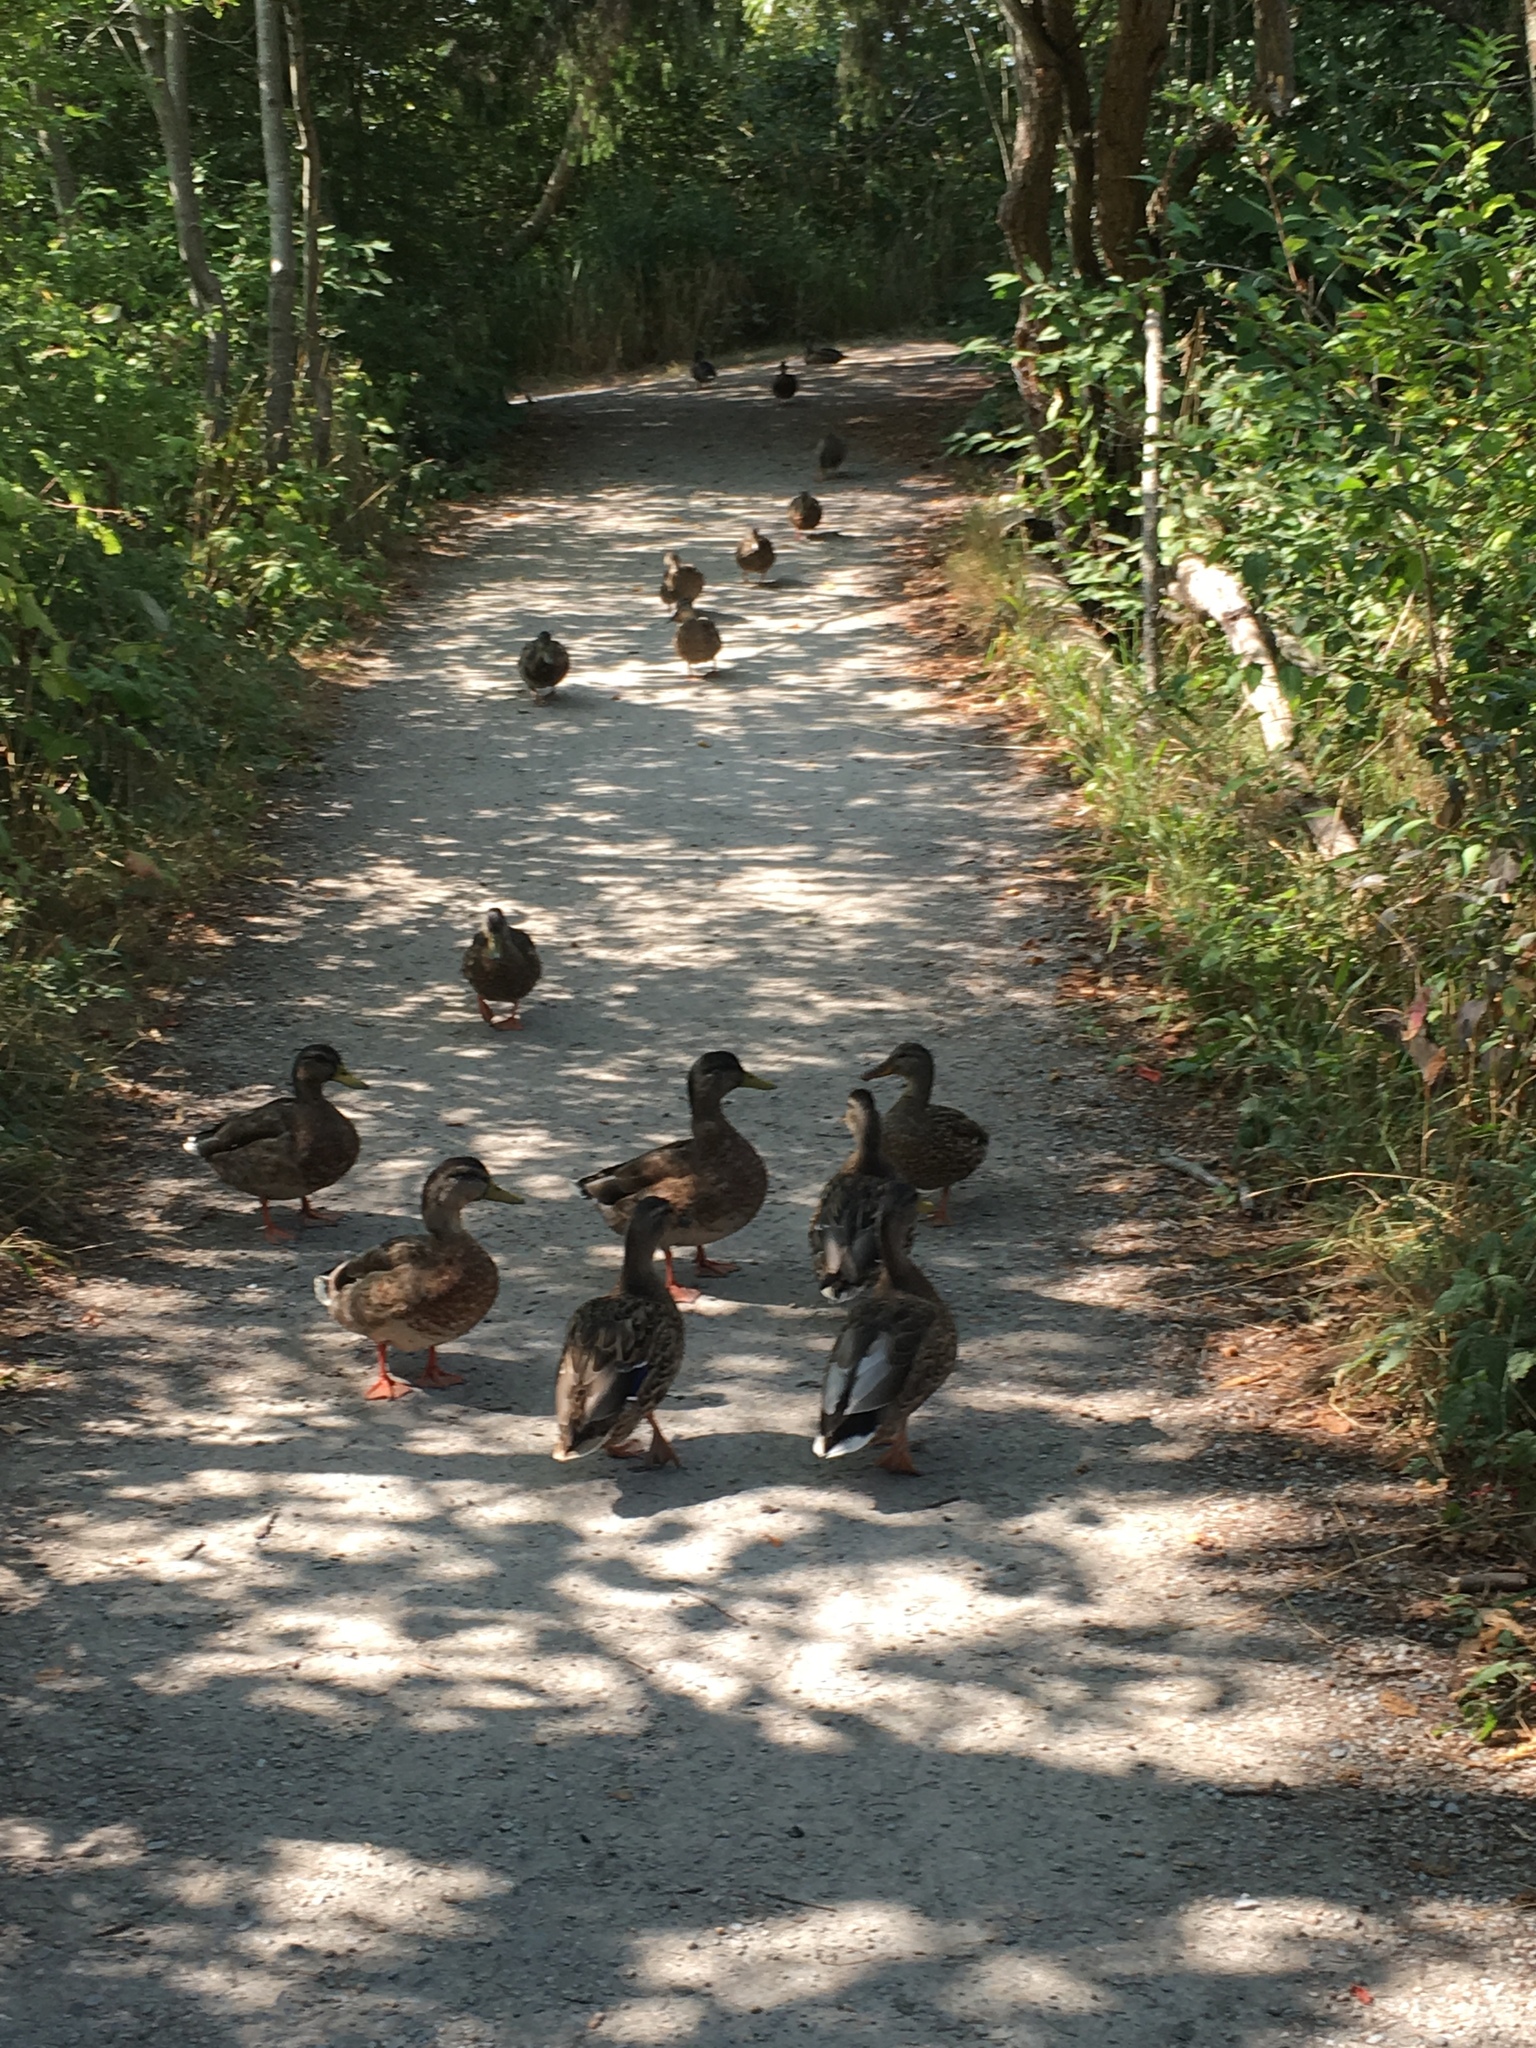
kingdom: Animalia
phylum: Chordata
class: Aves
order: Anseriformes
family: Anatidae
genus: Anas
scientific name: Anas platyrhynchos
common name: Mallard
